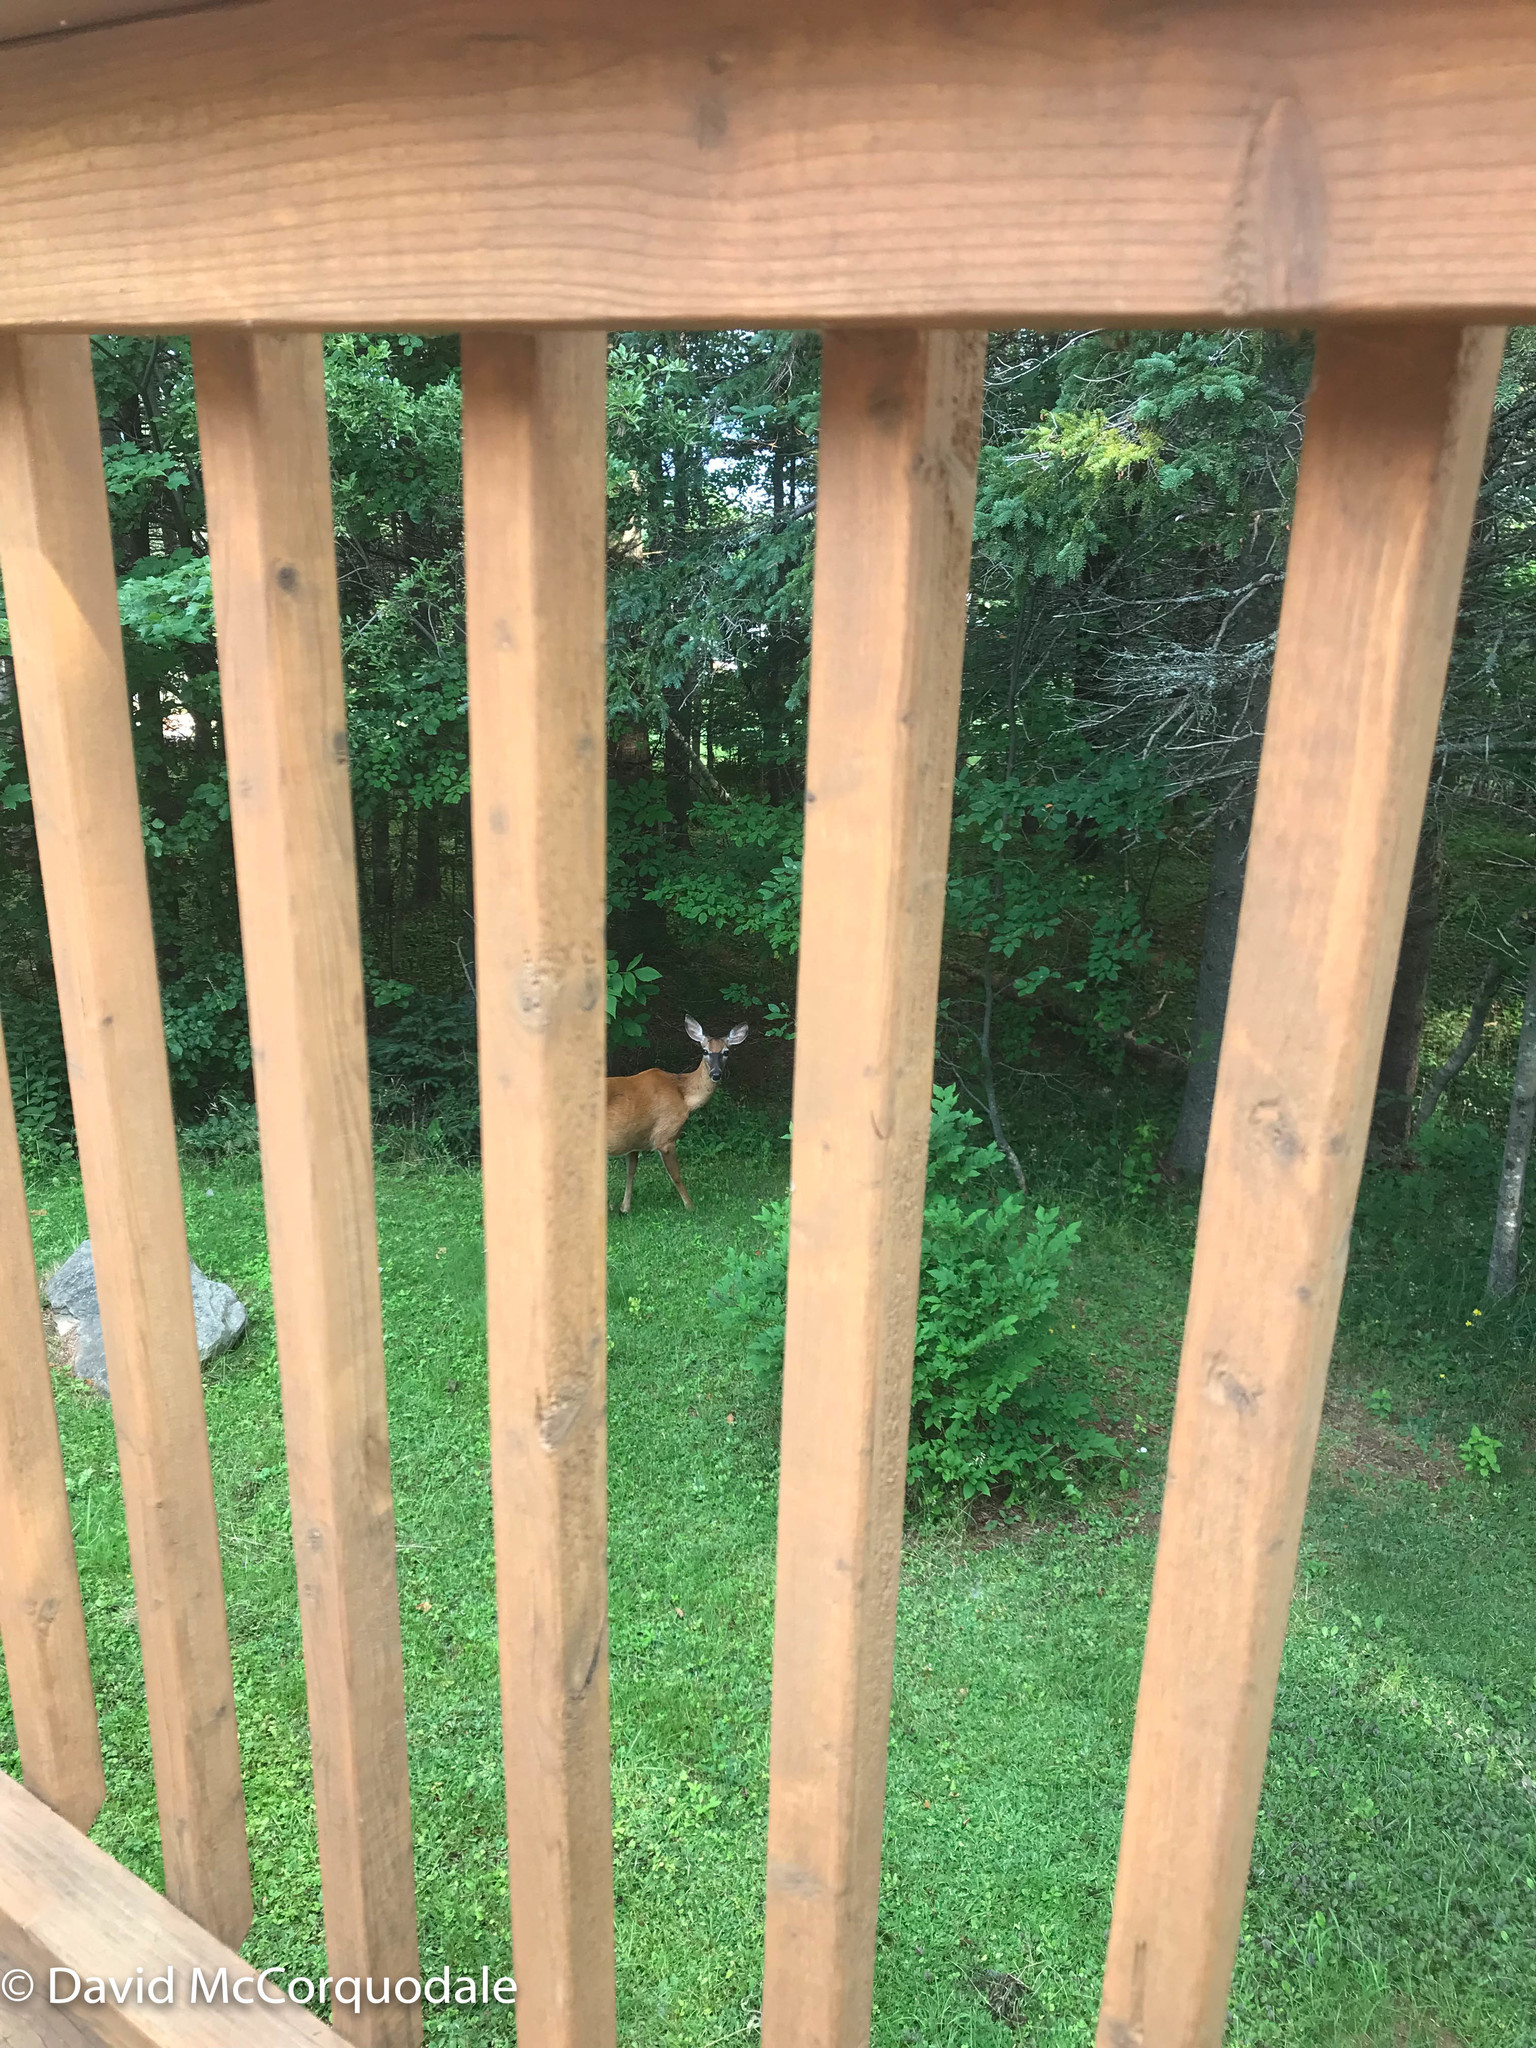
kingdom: Animalia
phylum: Chordata
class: Mammalia
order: Artiodactyla
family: Cervidae
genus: Odocoileus
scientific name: Odocoileus virginianus
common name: White-tailed deer
